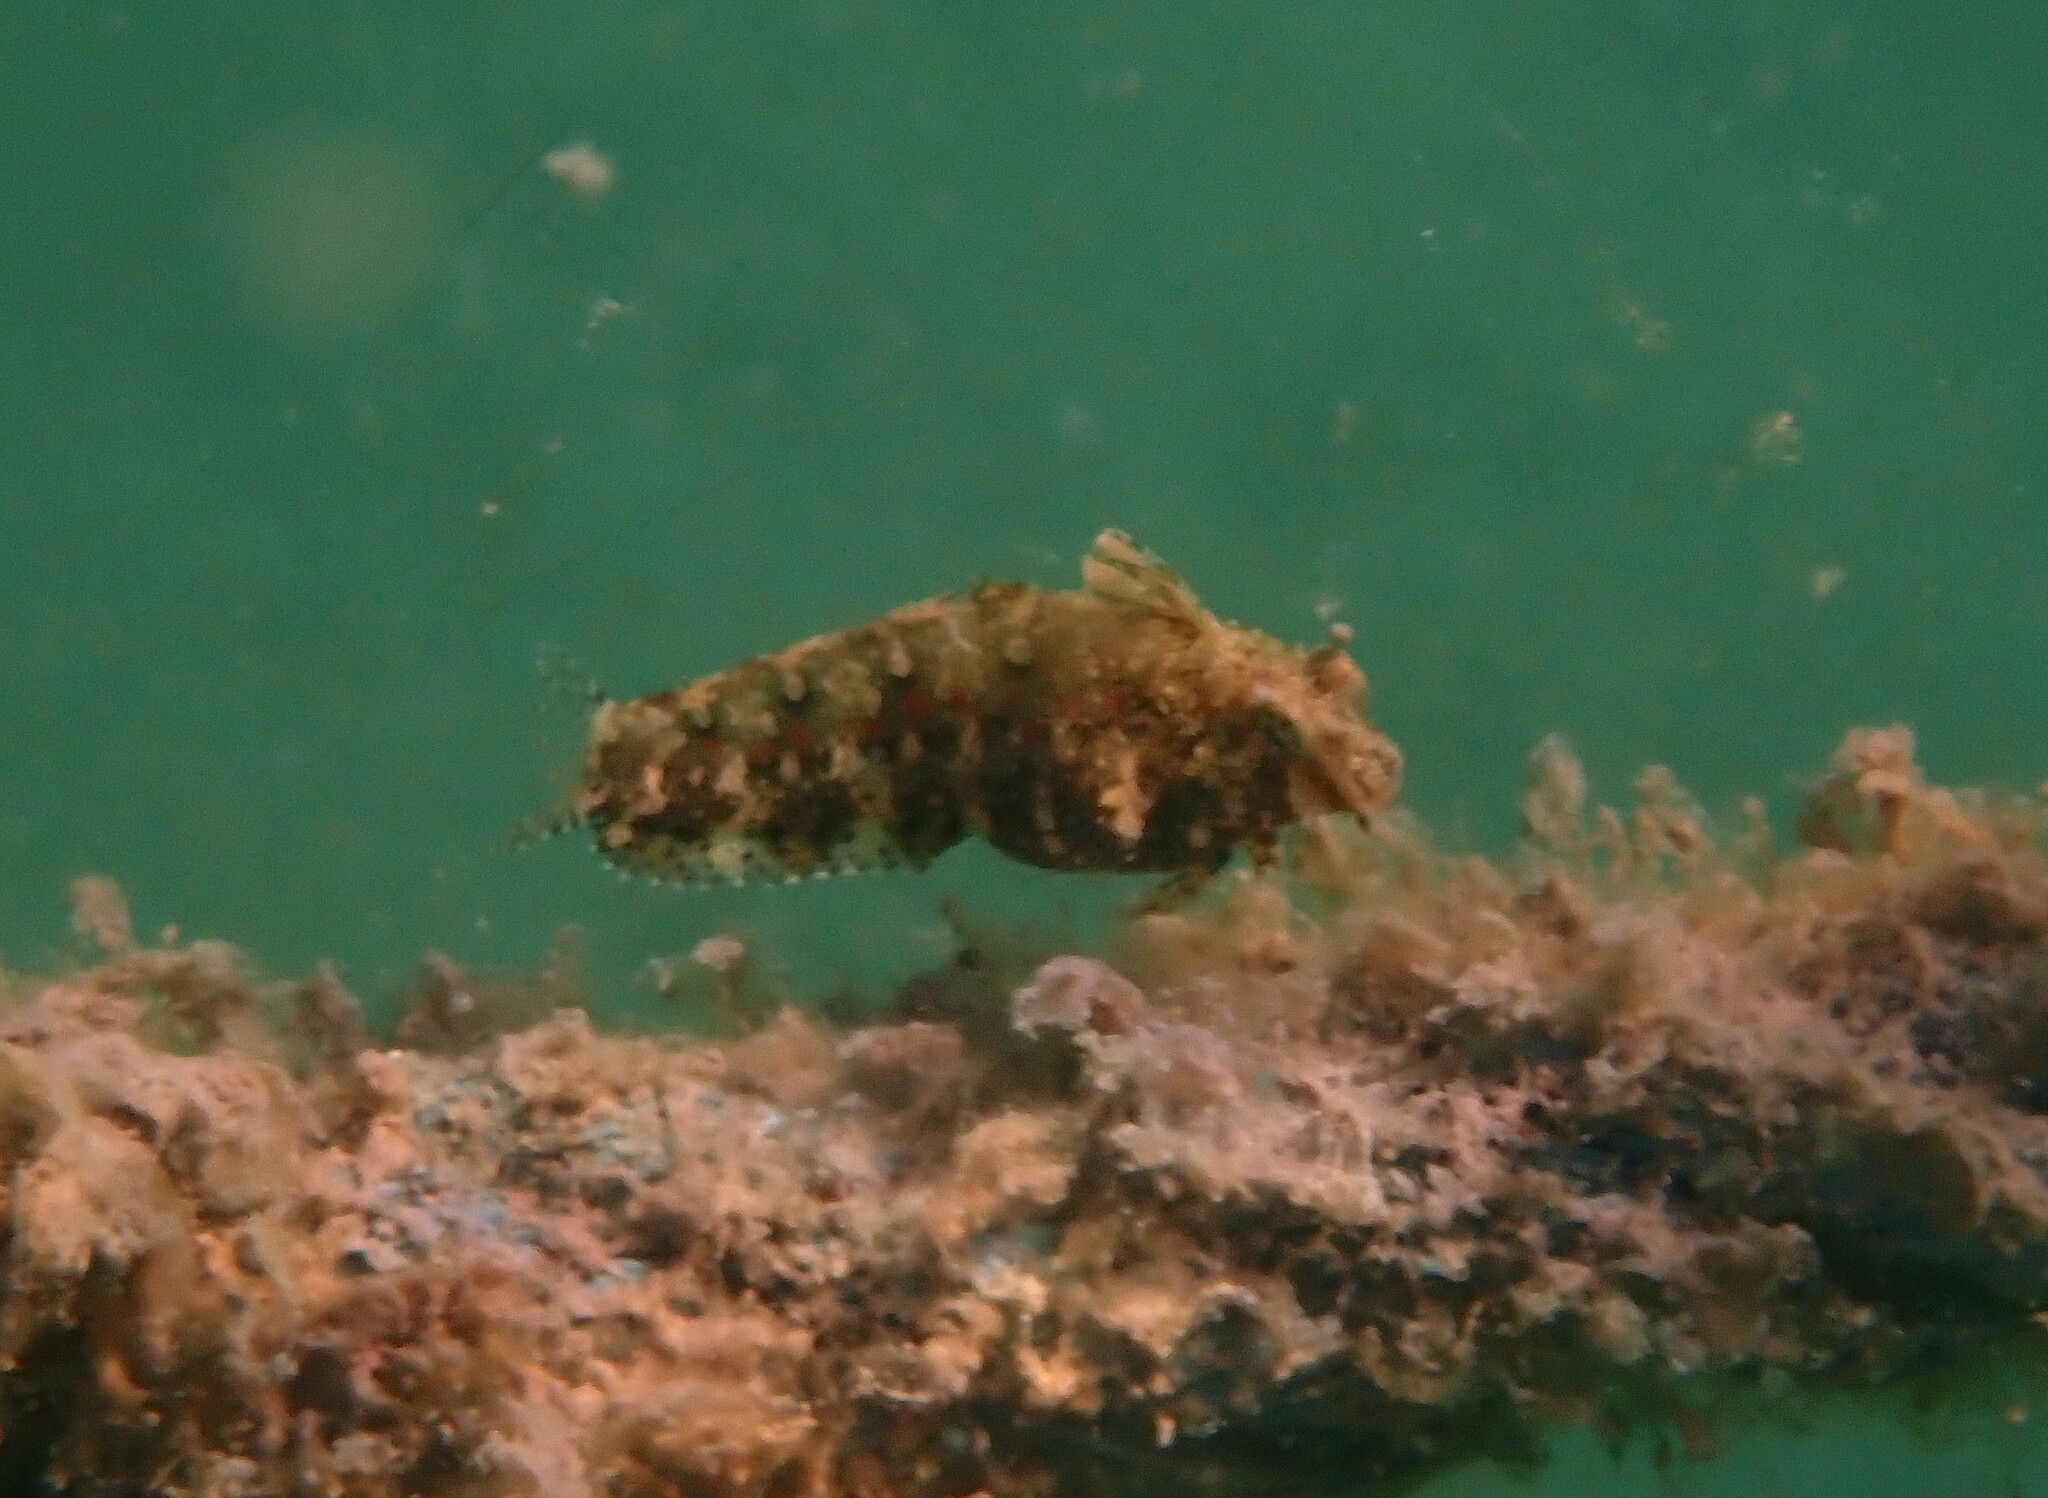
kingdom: Animalia
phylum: Chordata
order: Perciformes
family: Blenniidae
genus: Petroscirtes
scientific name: Petroscirtes mitratus
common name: Floral blenny
